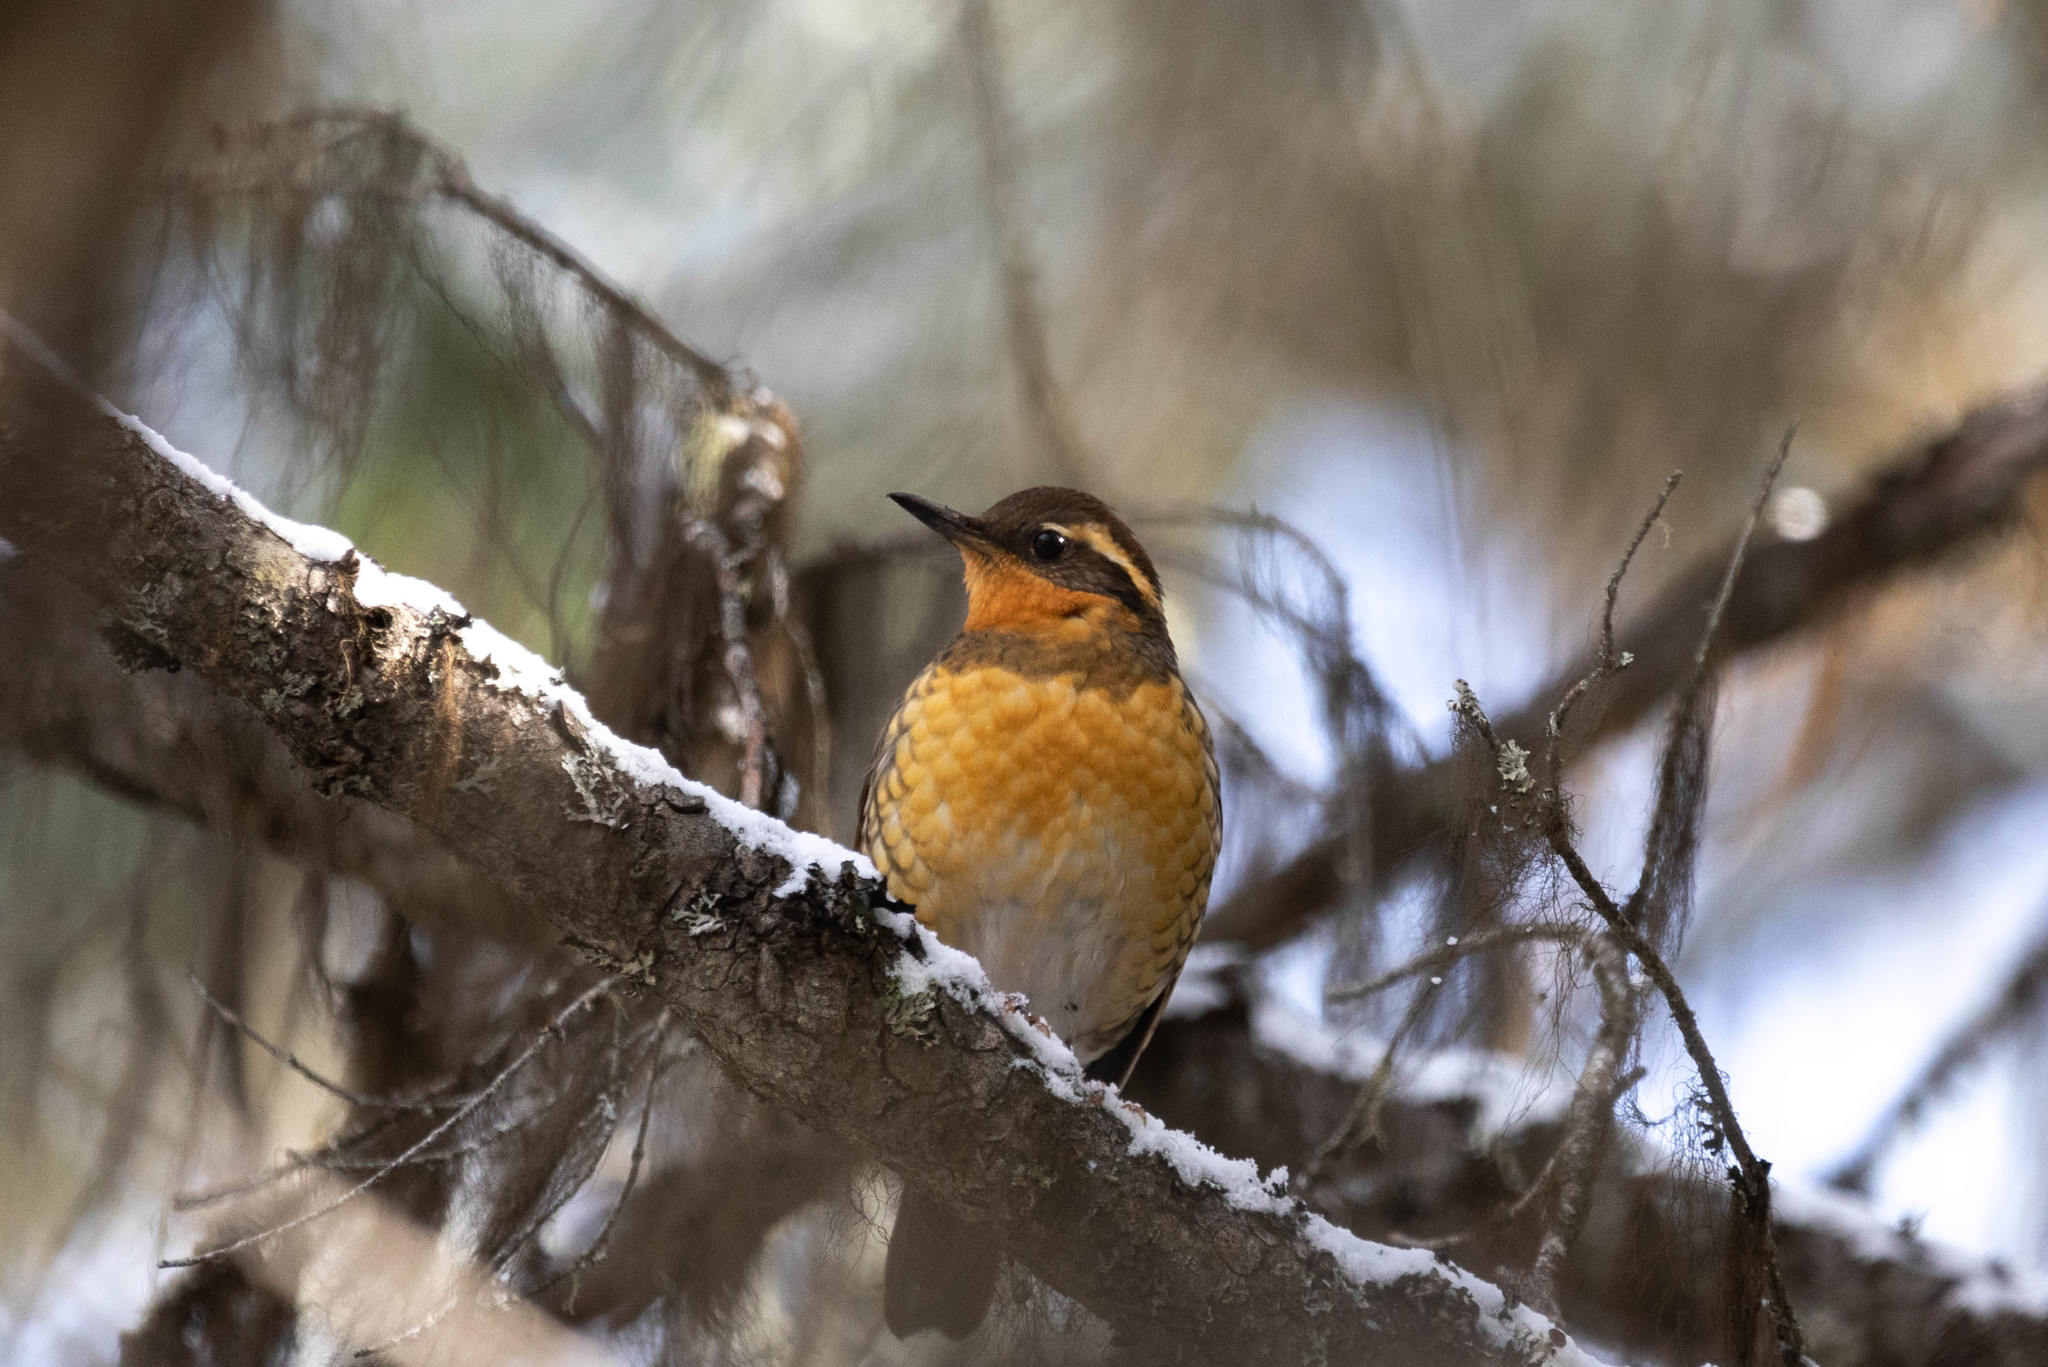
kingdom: Animalia
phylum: Chordata
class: Aves
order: Passeriformes
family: Turdidae
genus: Ixoreus
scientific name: Ixoreus naevius
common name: Varied thrush
